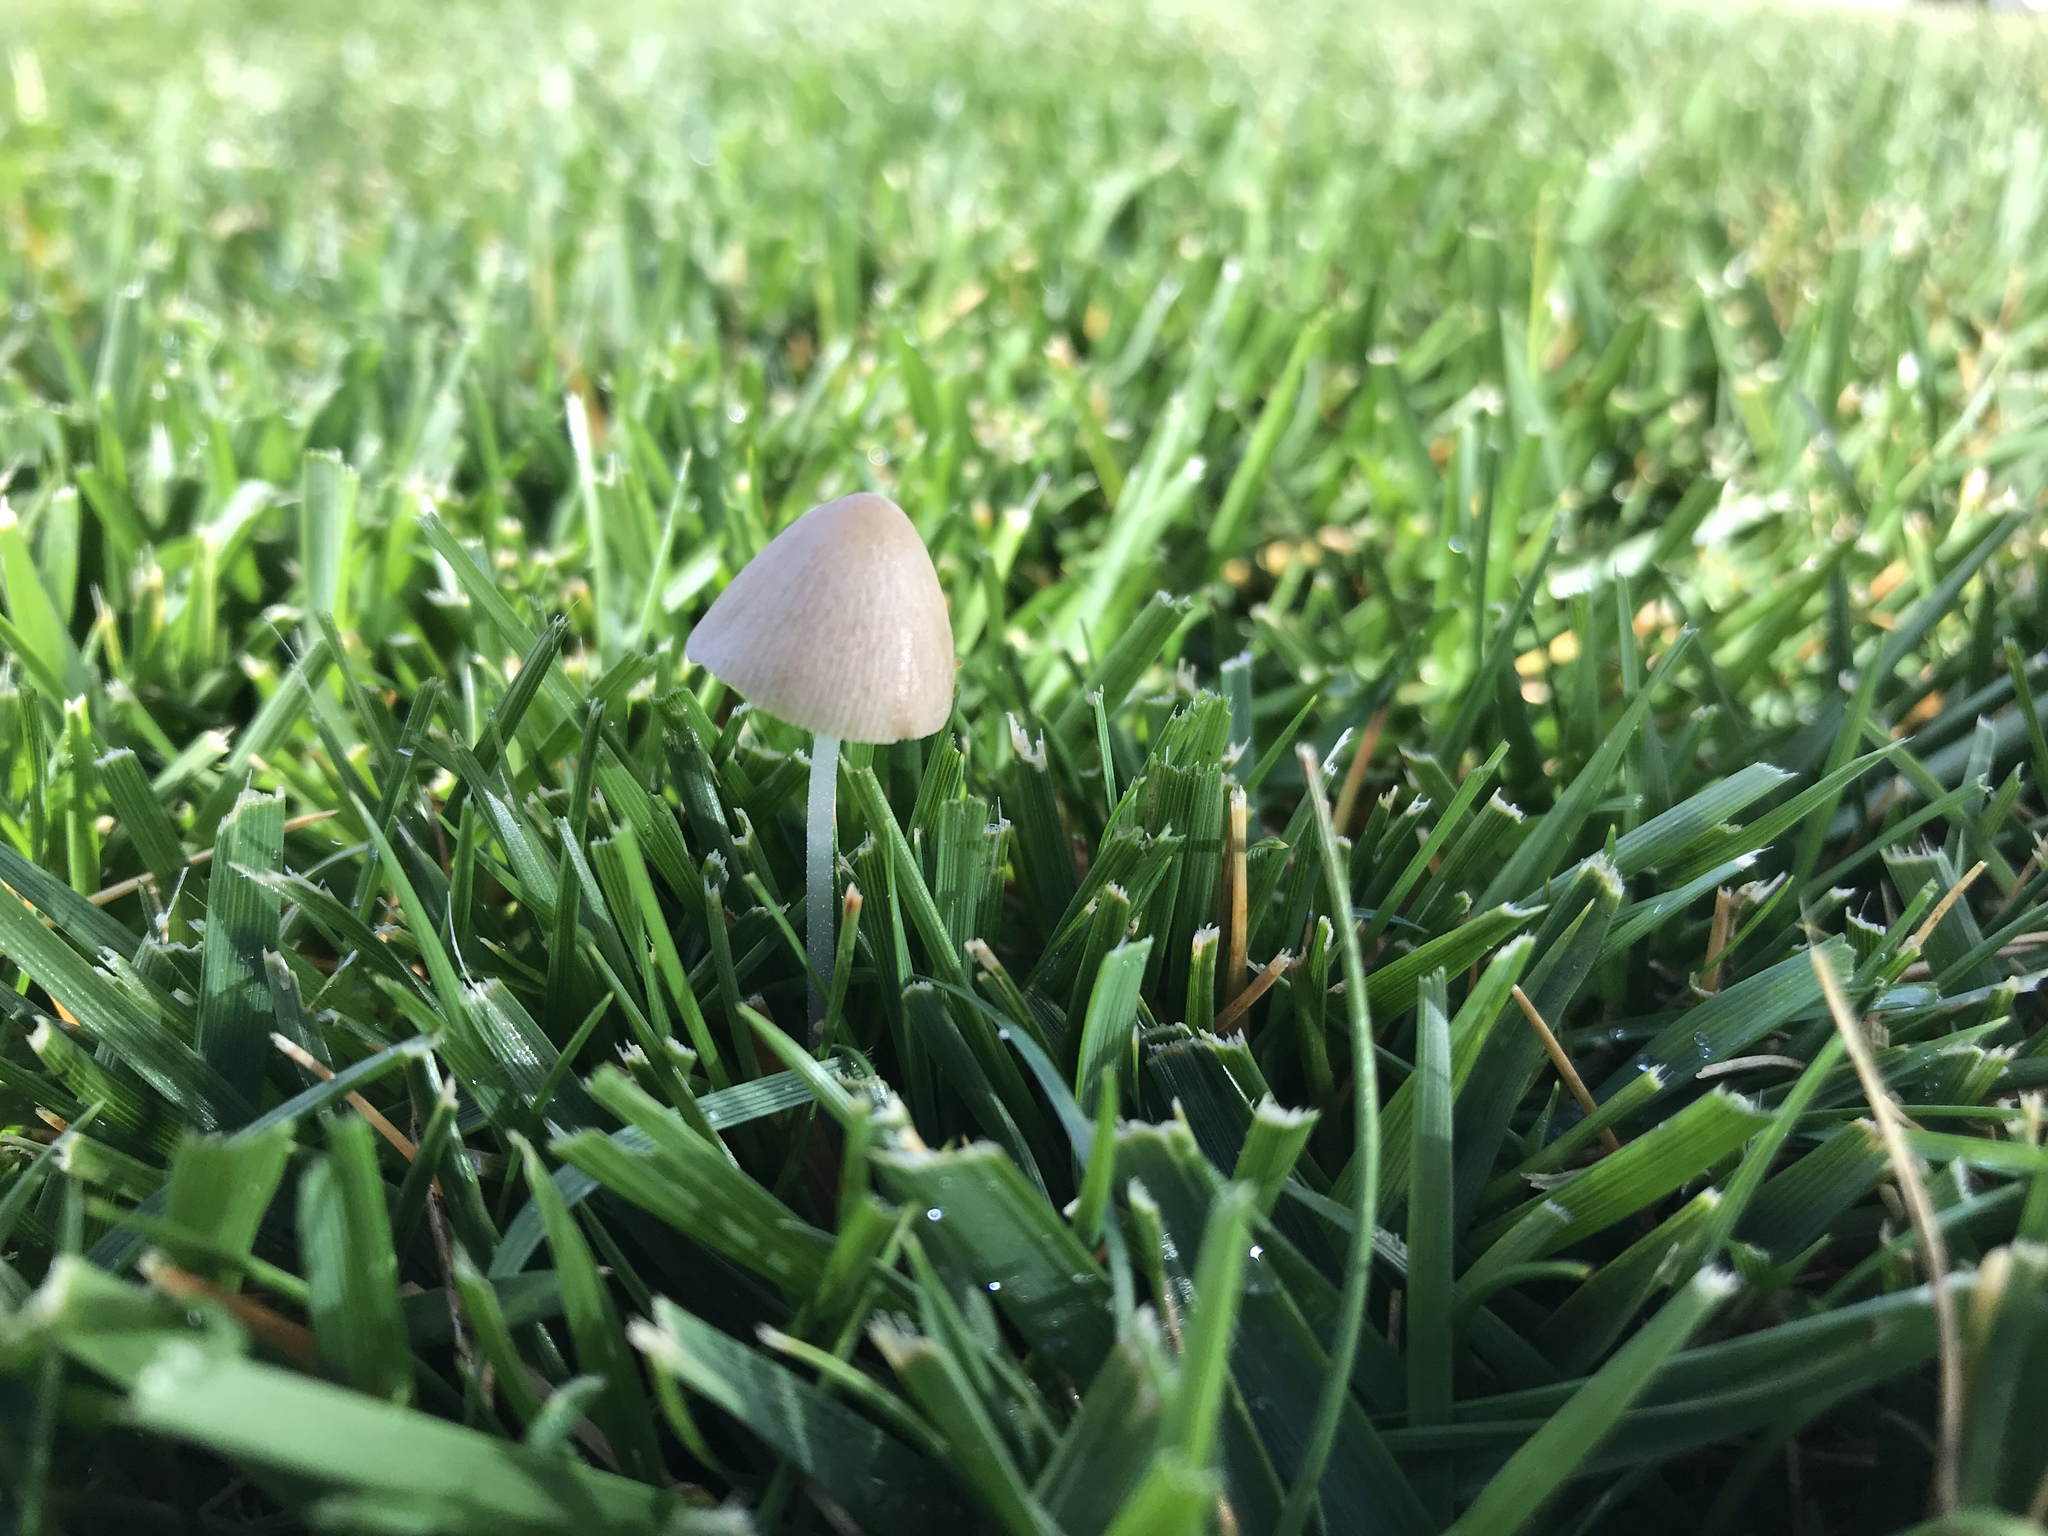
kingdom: Fungi
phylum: Basidiomycota
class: Agaricomycetes
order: Agaricales
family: Bolbitiaceae
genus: Conocybe
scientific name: Conocybe apala
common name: Milky conecap
